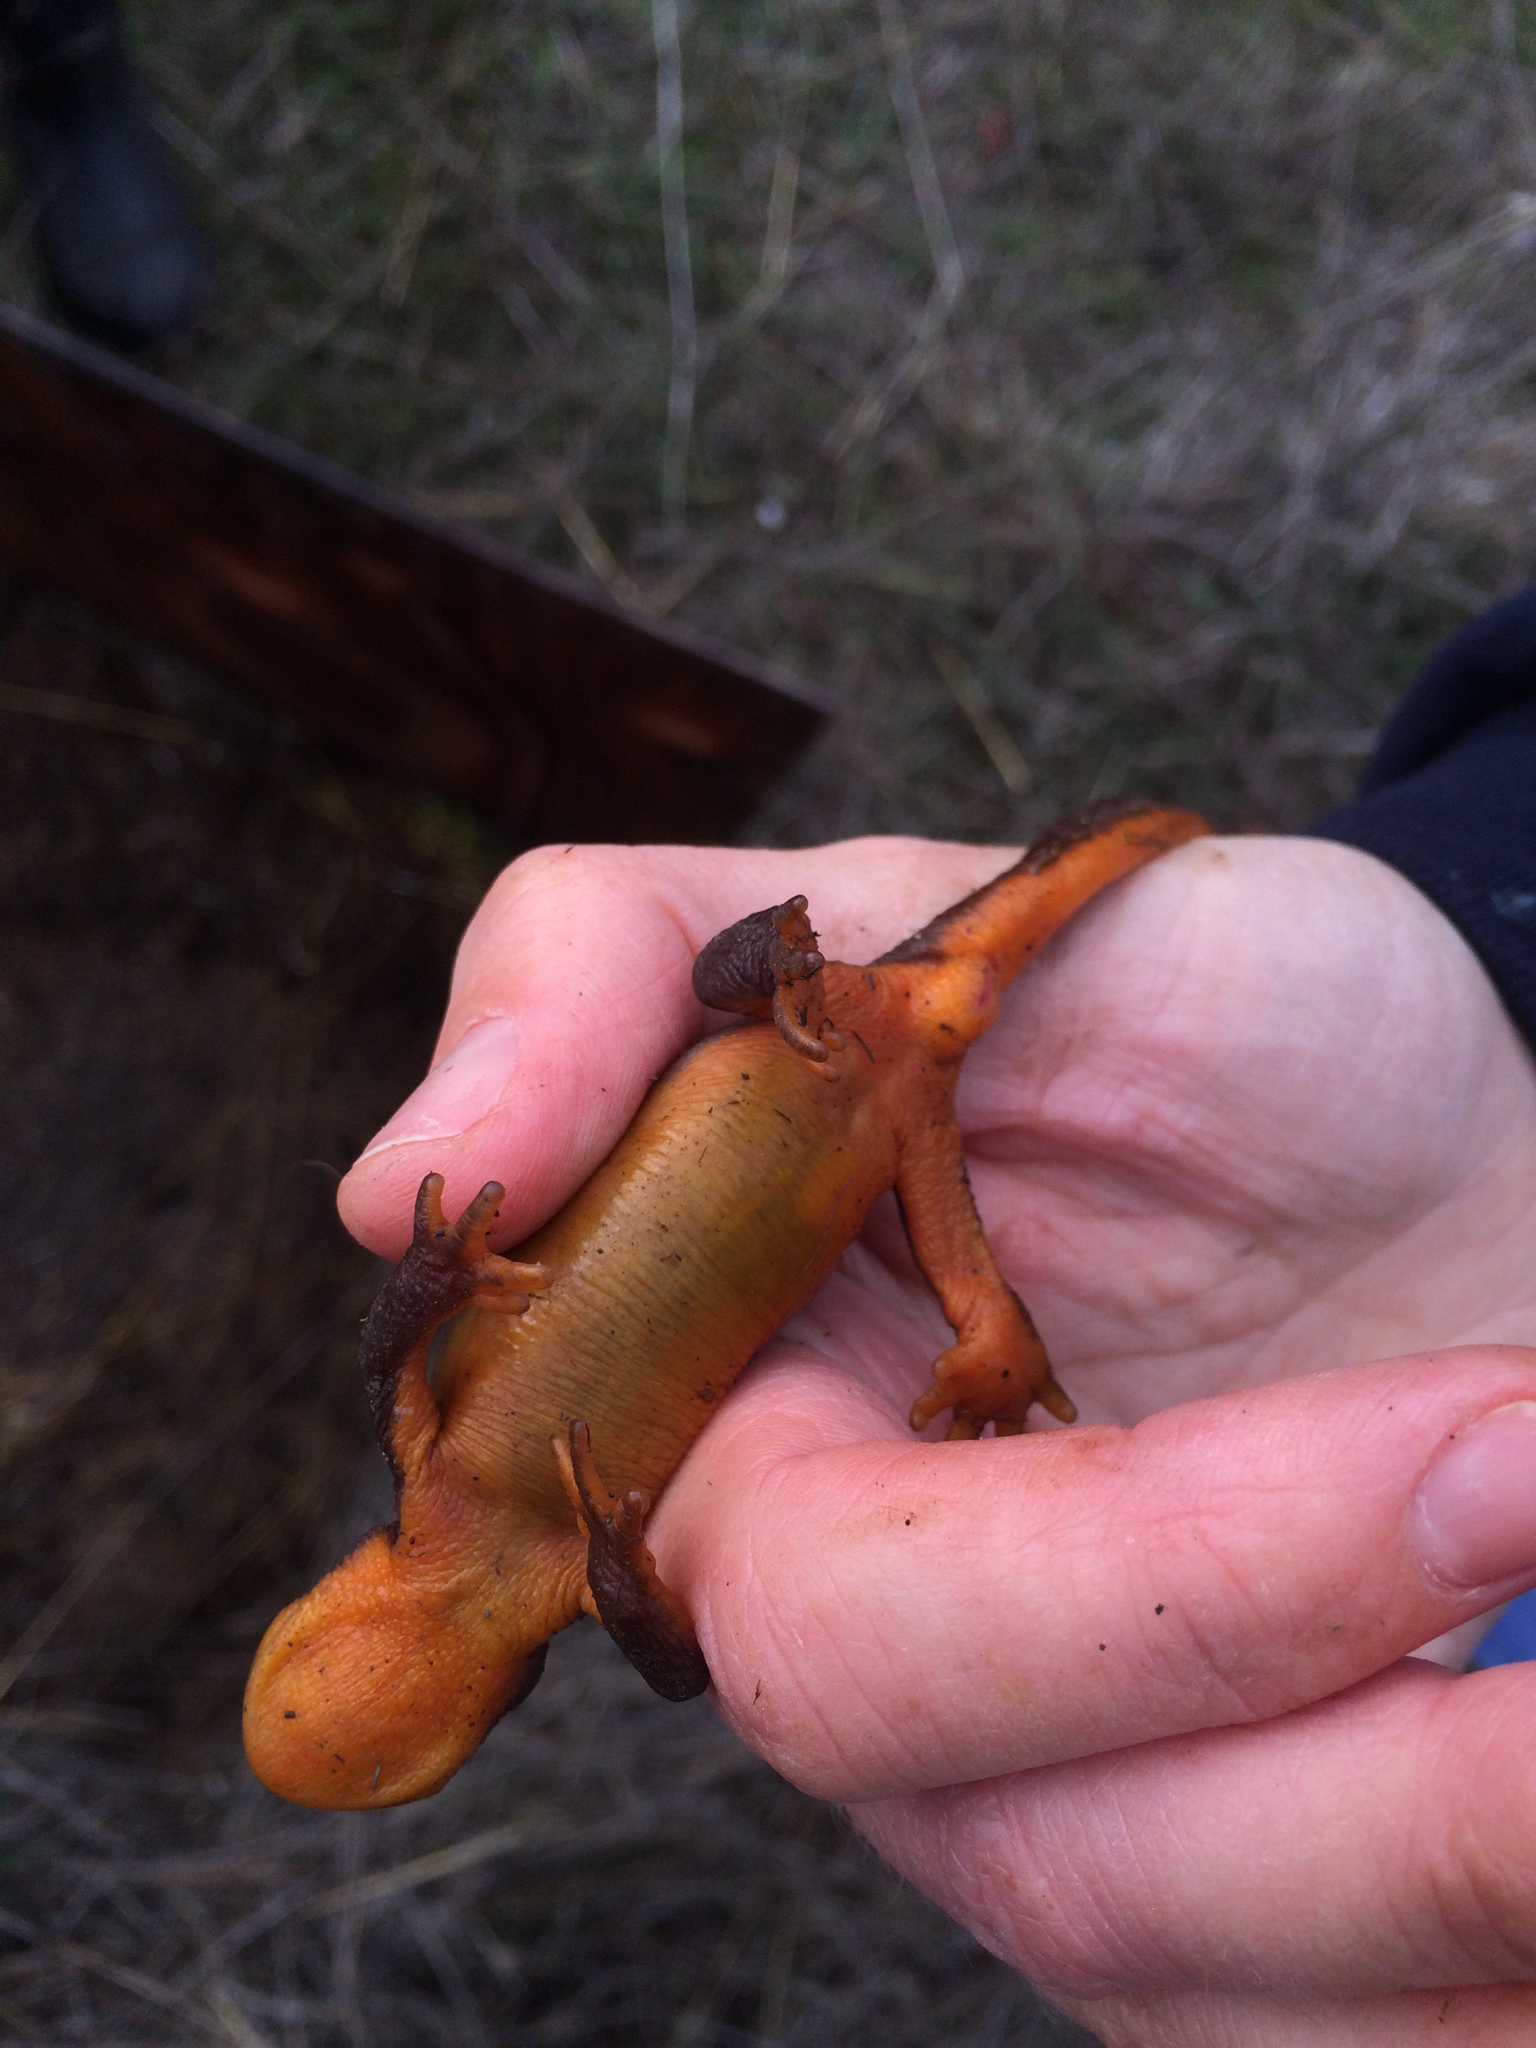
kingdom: Animalia
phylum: Chordata
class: Amphibia
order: Caudata
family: Salamandridae
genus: Taricha
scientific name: Taricha torosa
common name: California newt
